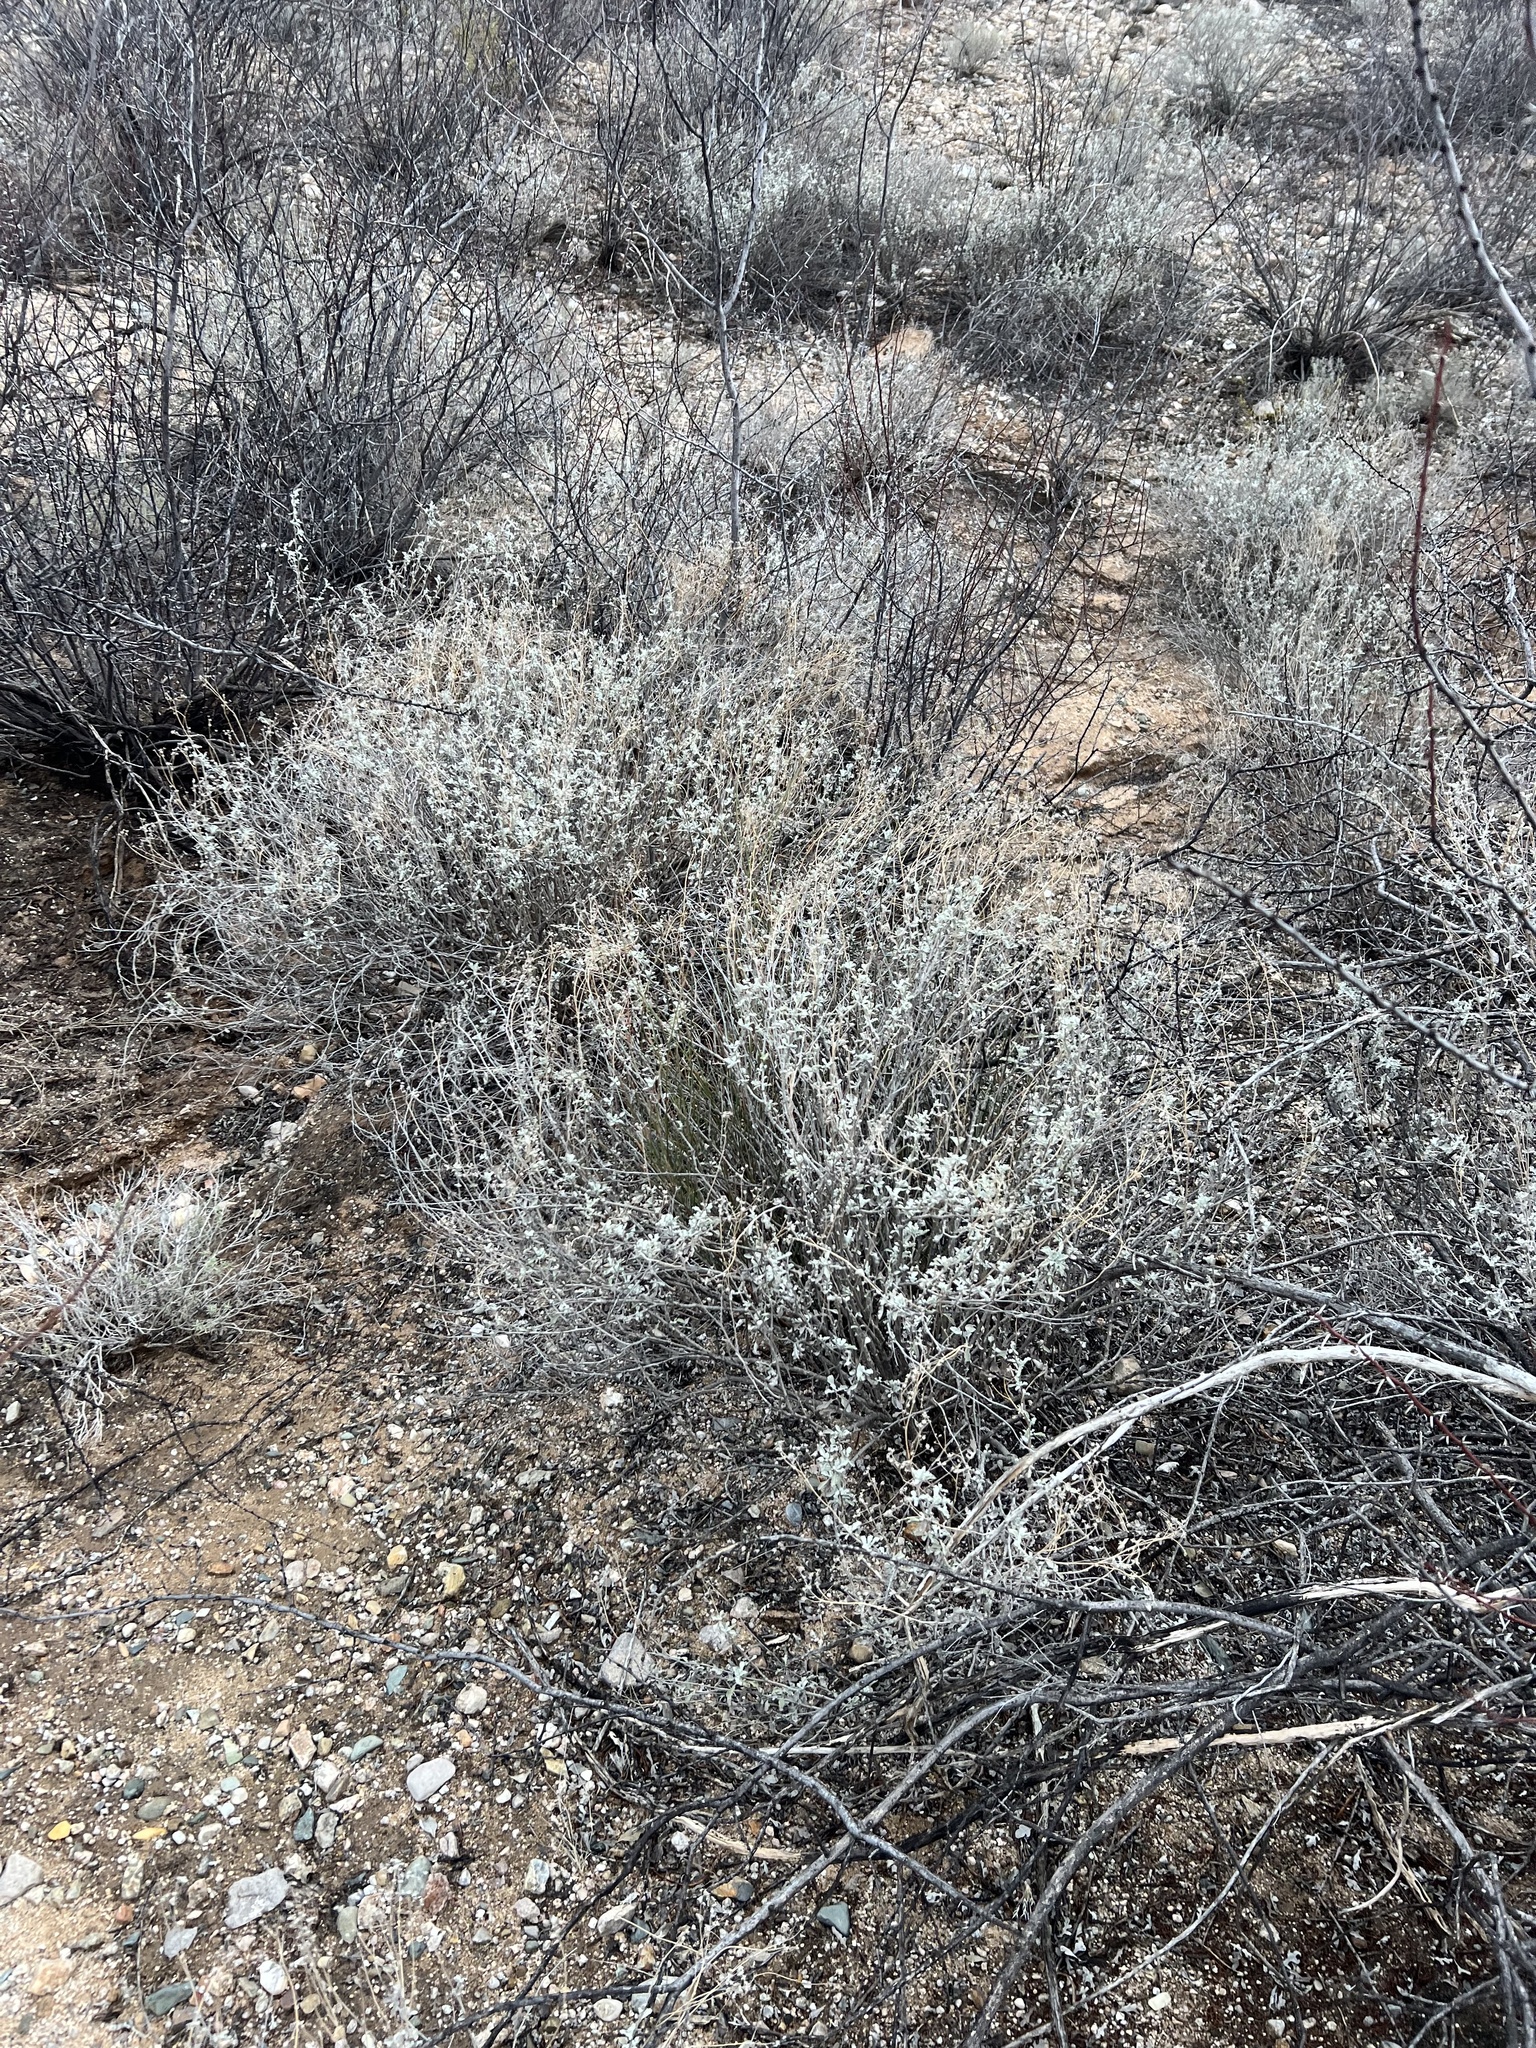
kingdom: Plantae
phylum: Tracheophyta
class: Magnoliopsida
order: Asterales
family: Asteraceae
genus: Parthenium
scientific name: Parthenium incanum
